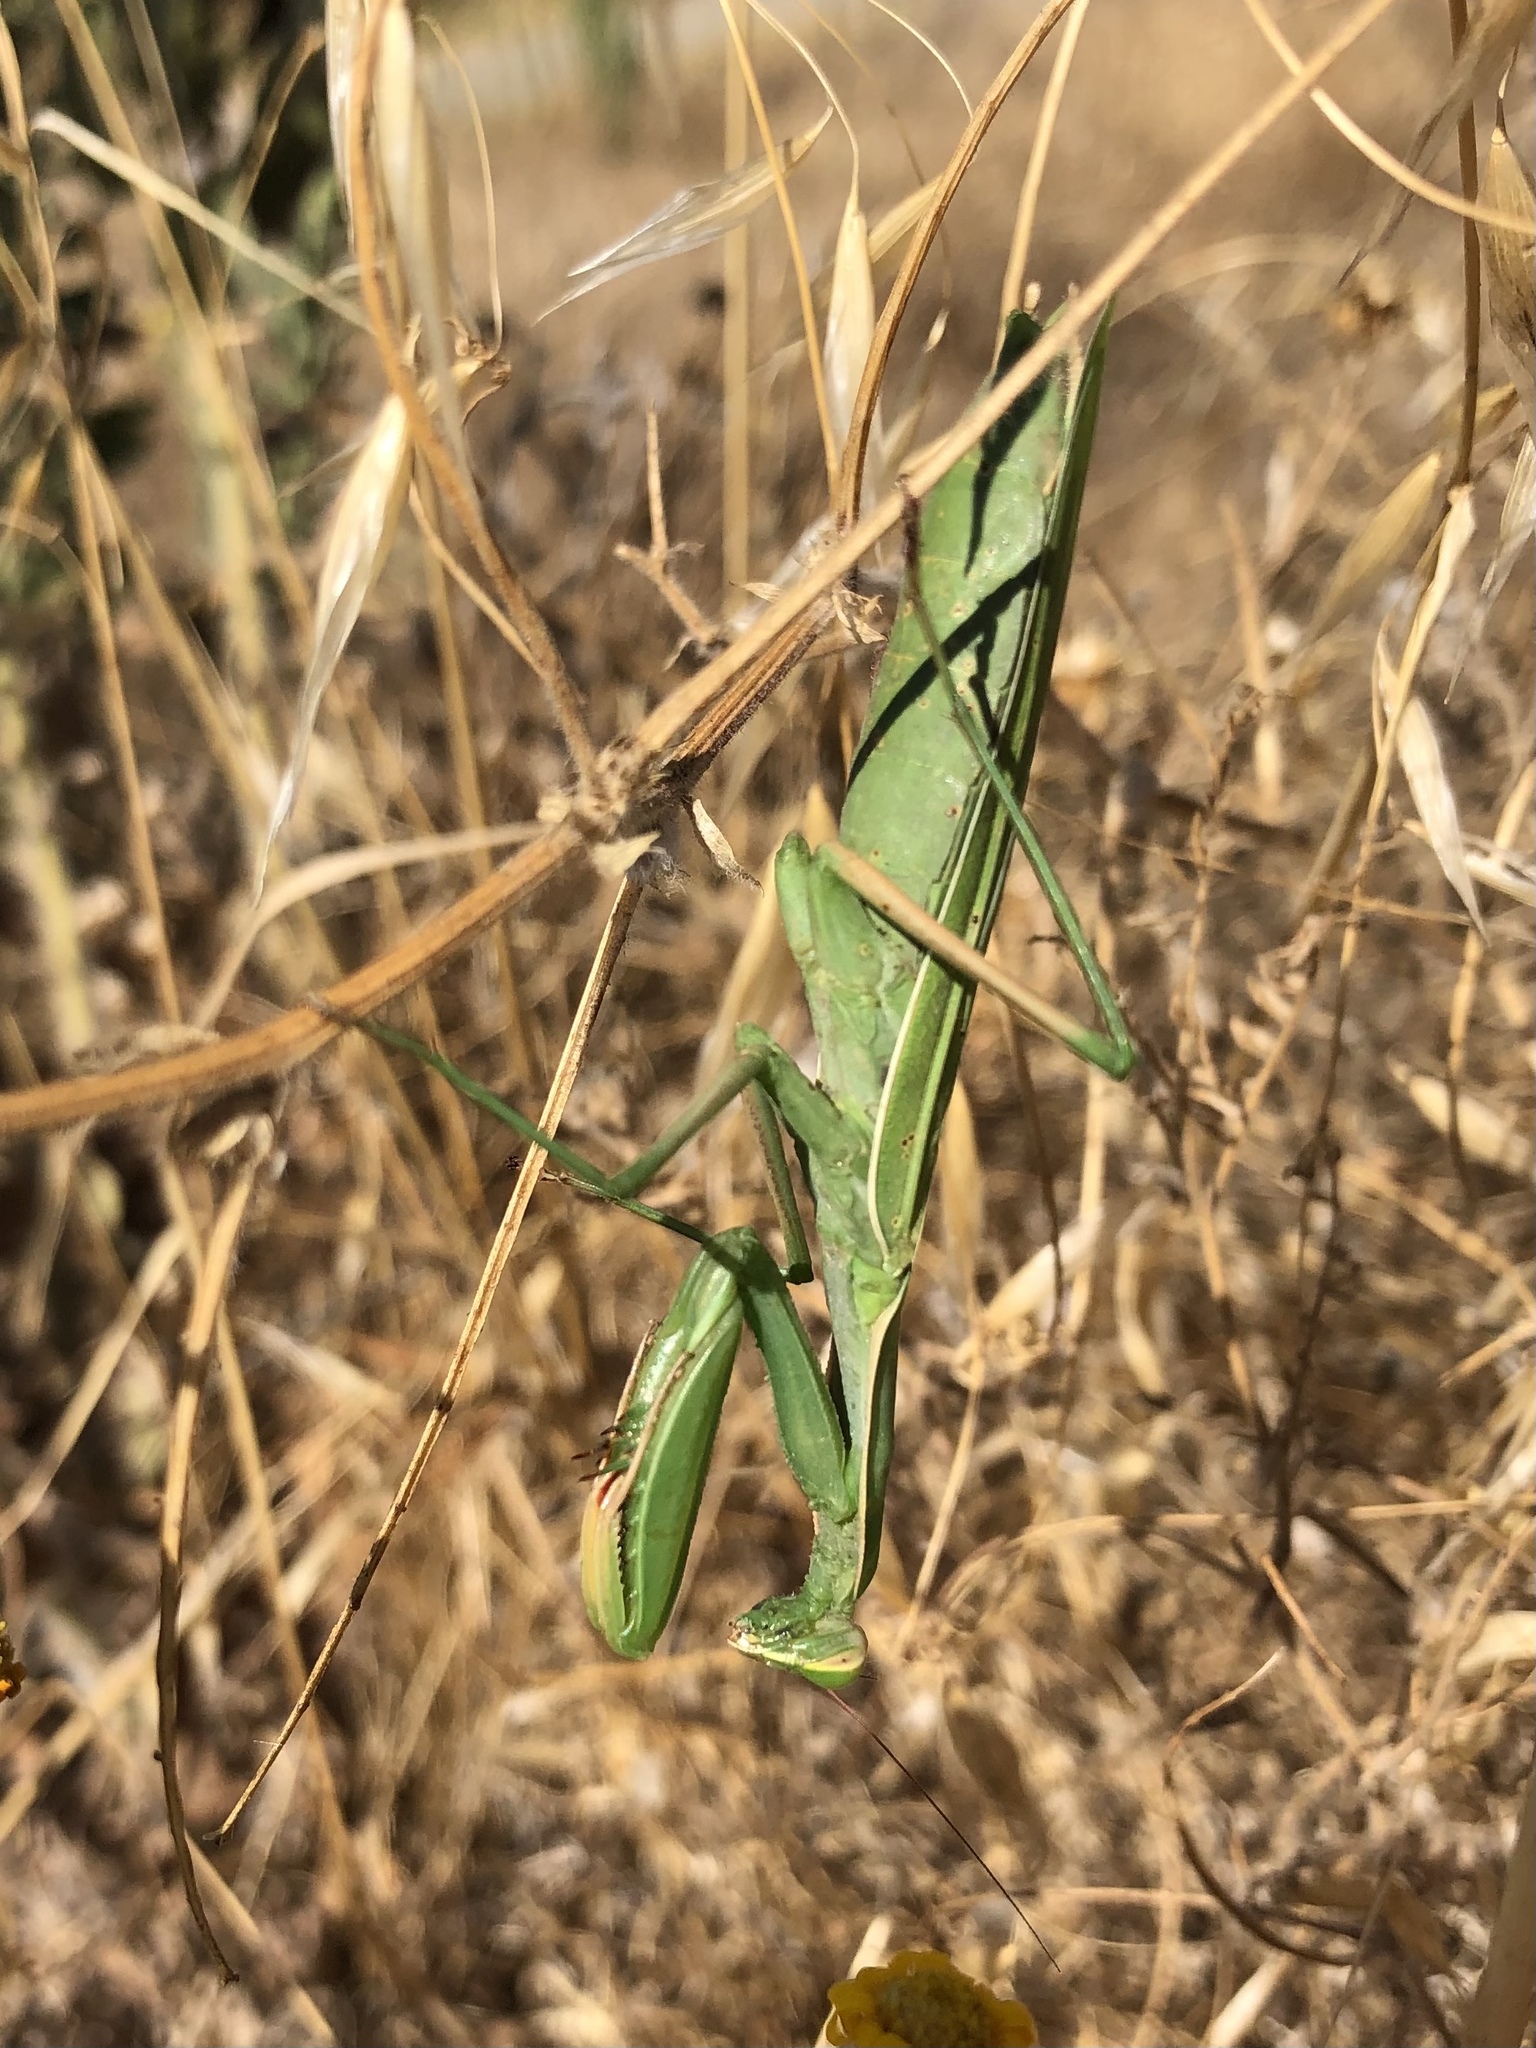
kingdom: Animalia
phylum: Arthropoda
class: Insecta
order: Mantodea
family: Mantidae
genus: Mantis
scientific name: Mantis religiosa
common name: Praying mantis
